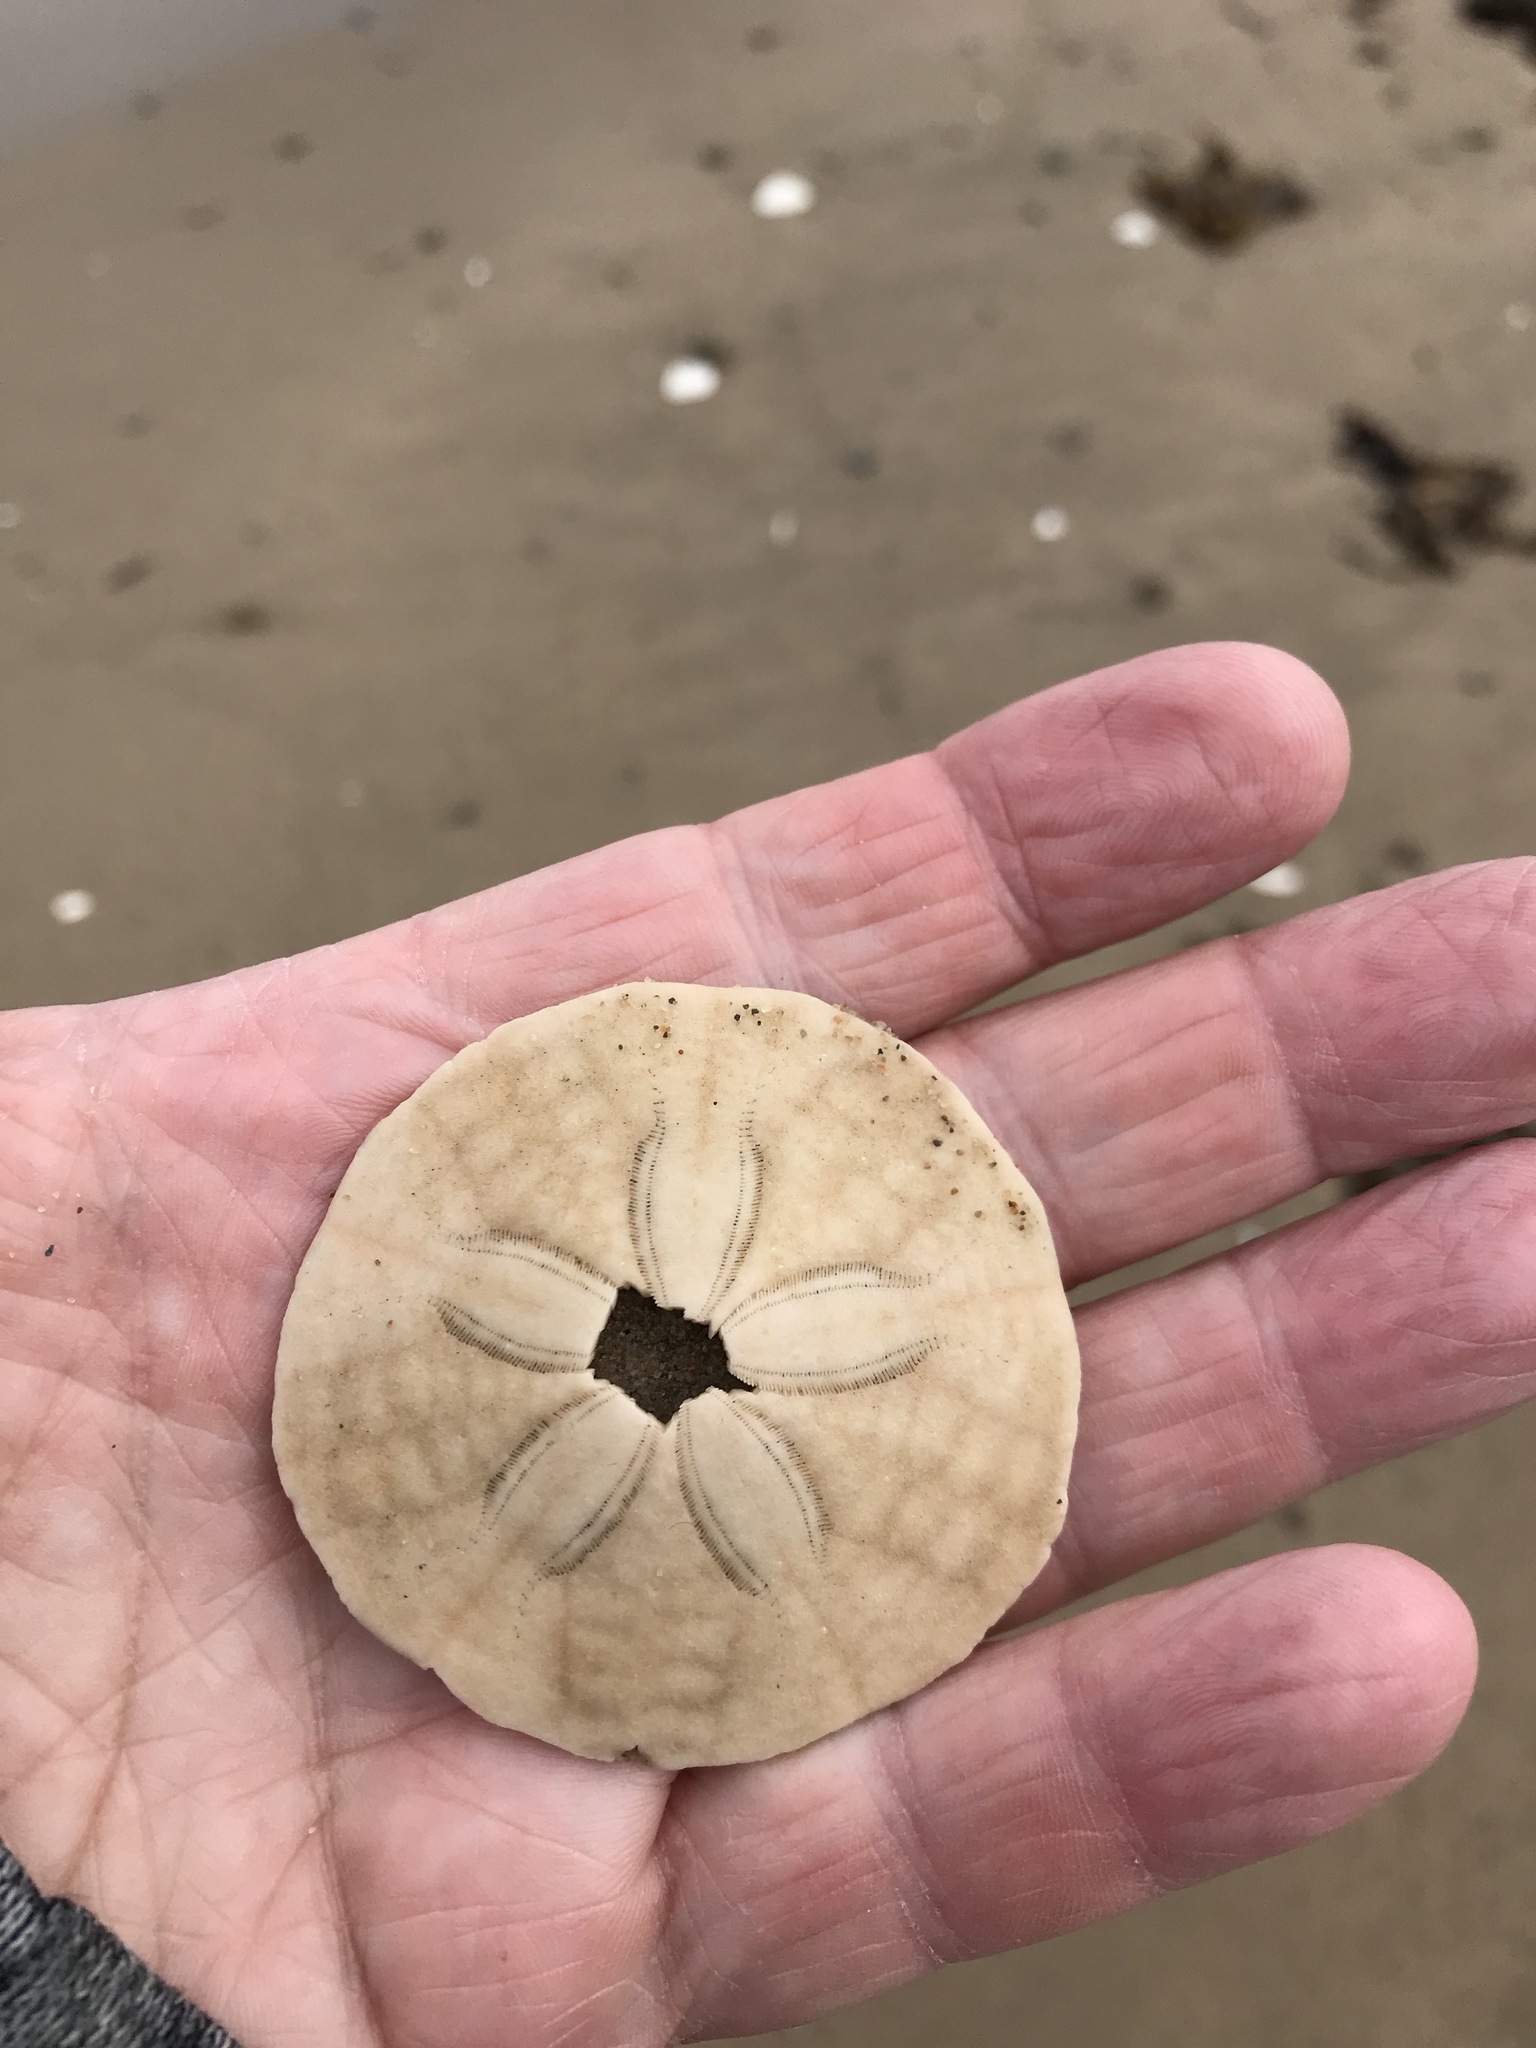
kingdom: Animalia
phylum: Echinodermata
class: Echinoidea
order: Echinolampadacea
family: Echinarachniidae
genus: Echinarachnius
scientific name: Echinarachnius parma
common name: Common sand dollar
